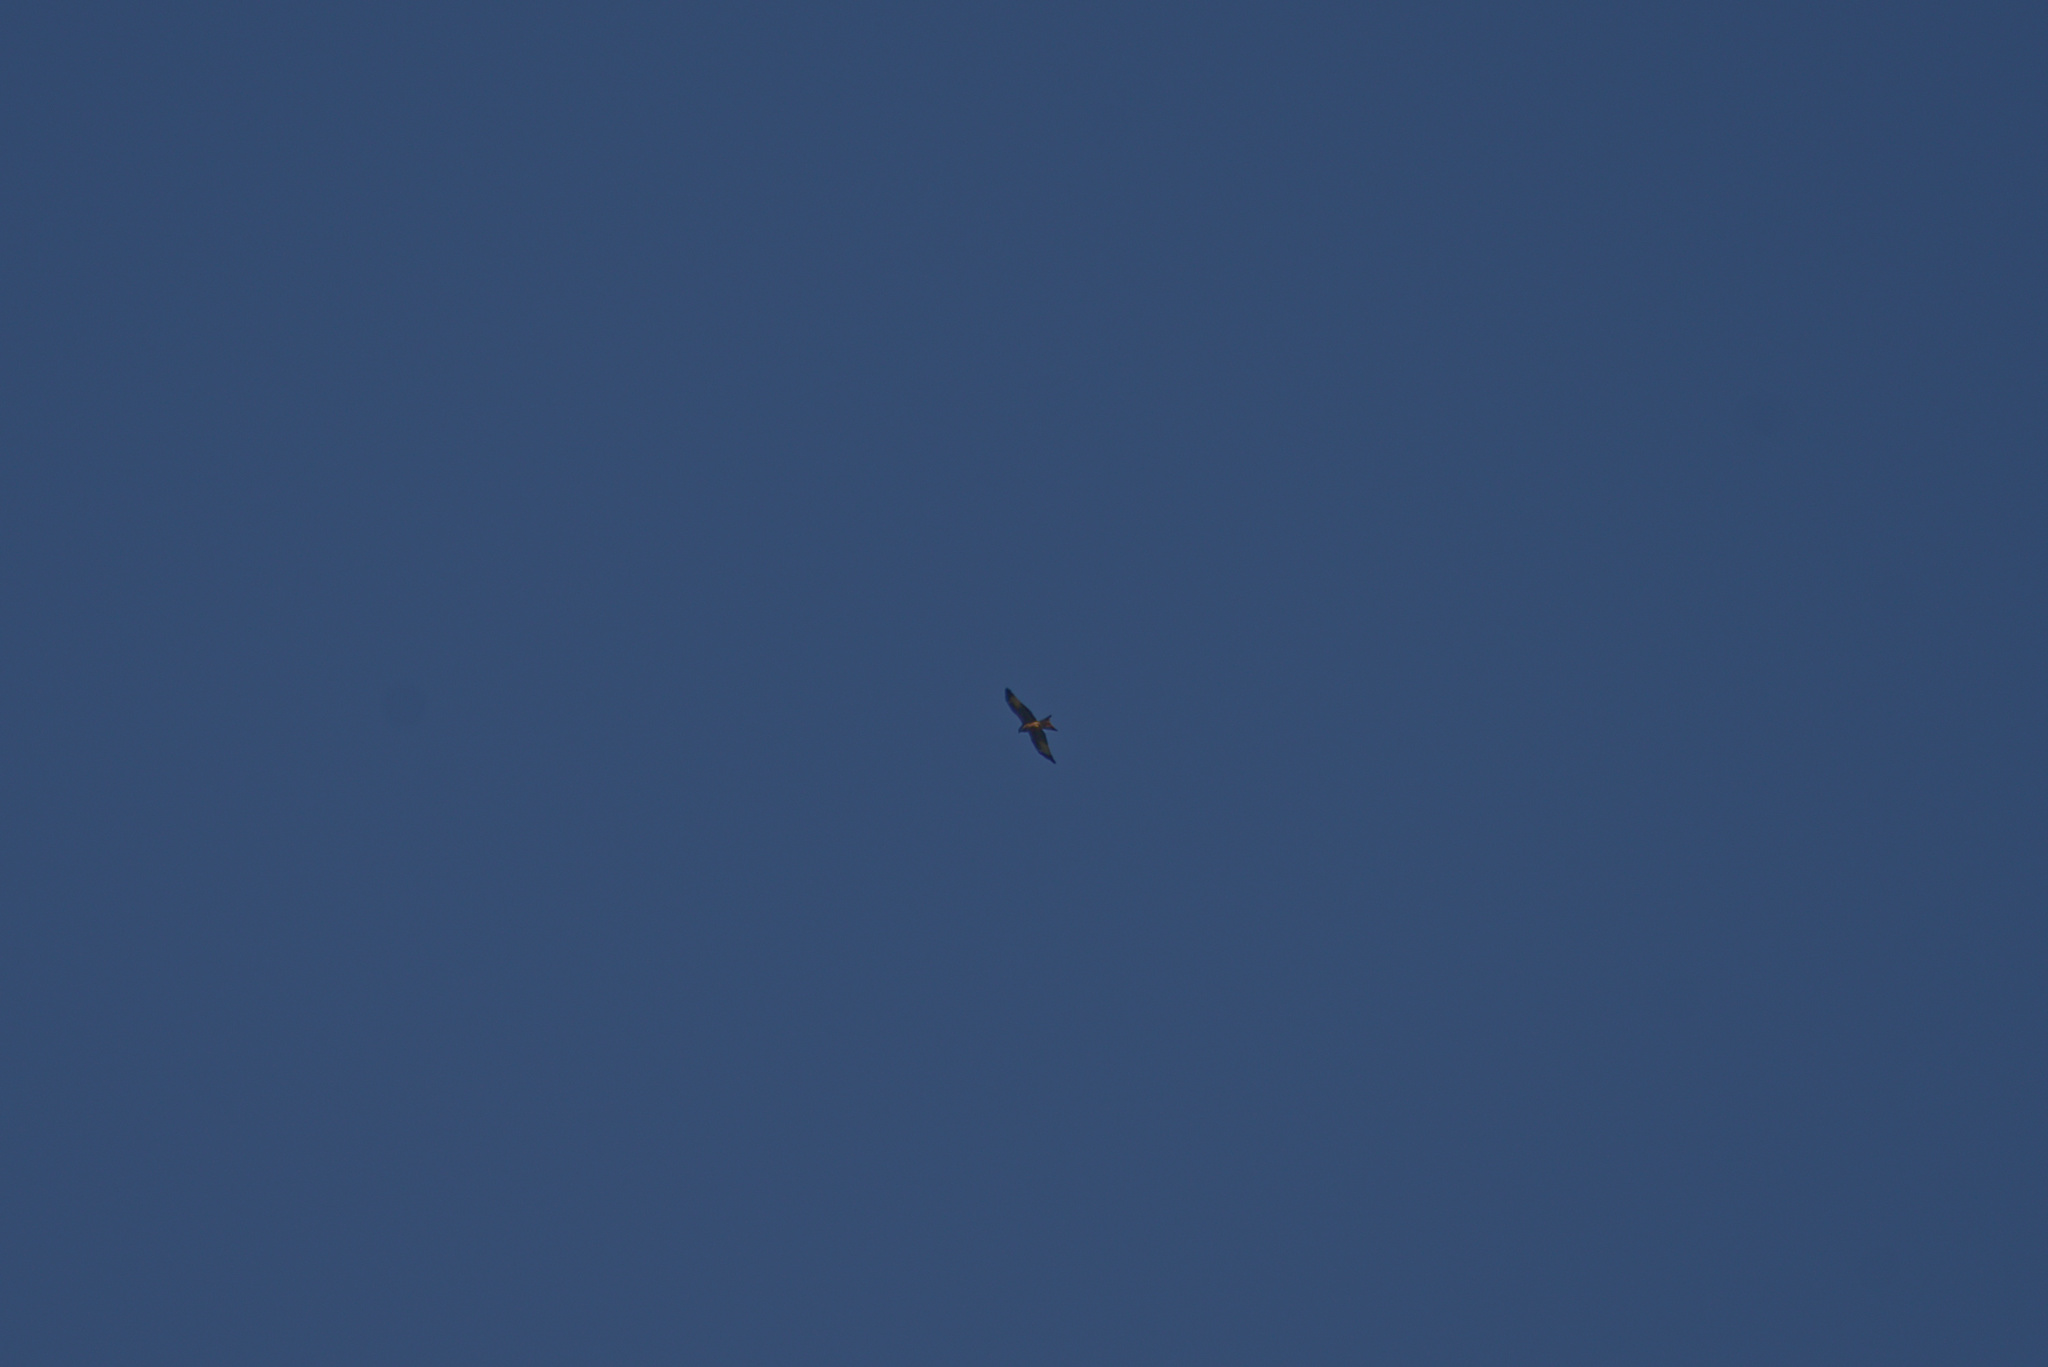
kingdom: Animalia
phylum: Chordata
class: Aves
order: Accipitriformes
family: Accipitridae
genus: Milvus
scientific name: Milvus milvus
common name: Red kite
